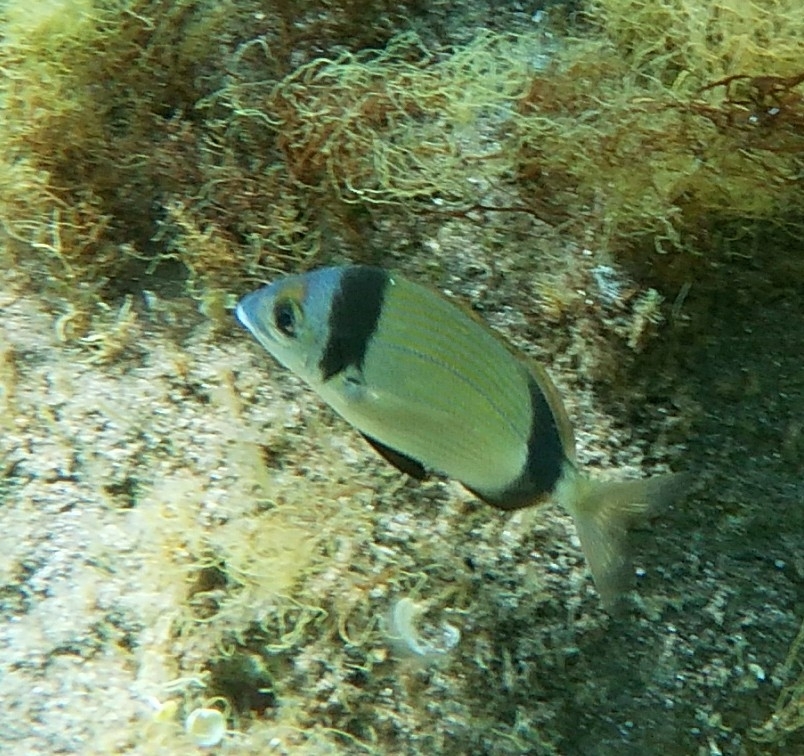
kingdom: Animalia
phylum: Chordata
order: Perciformes
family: Sparidae
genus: Diplodus
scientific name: Diplodus vulgaris
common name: Common two-banded seabream
